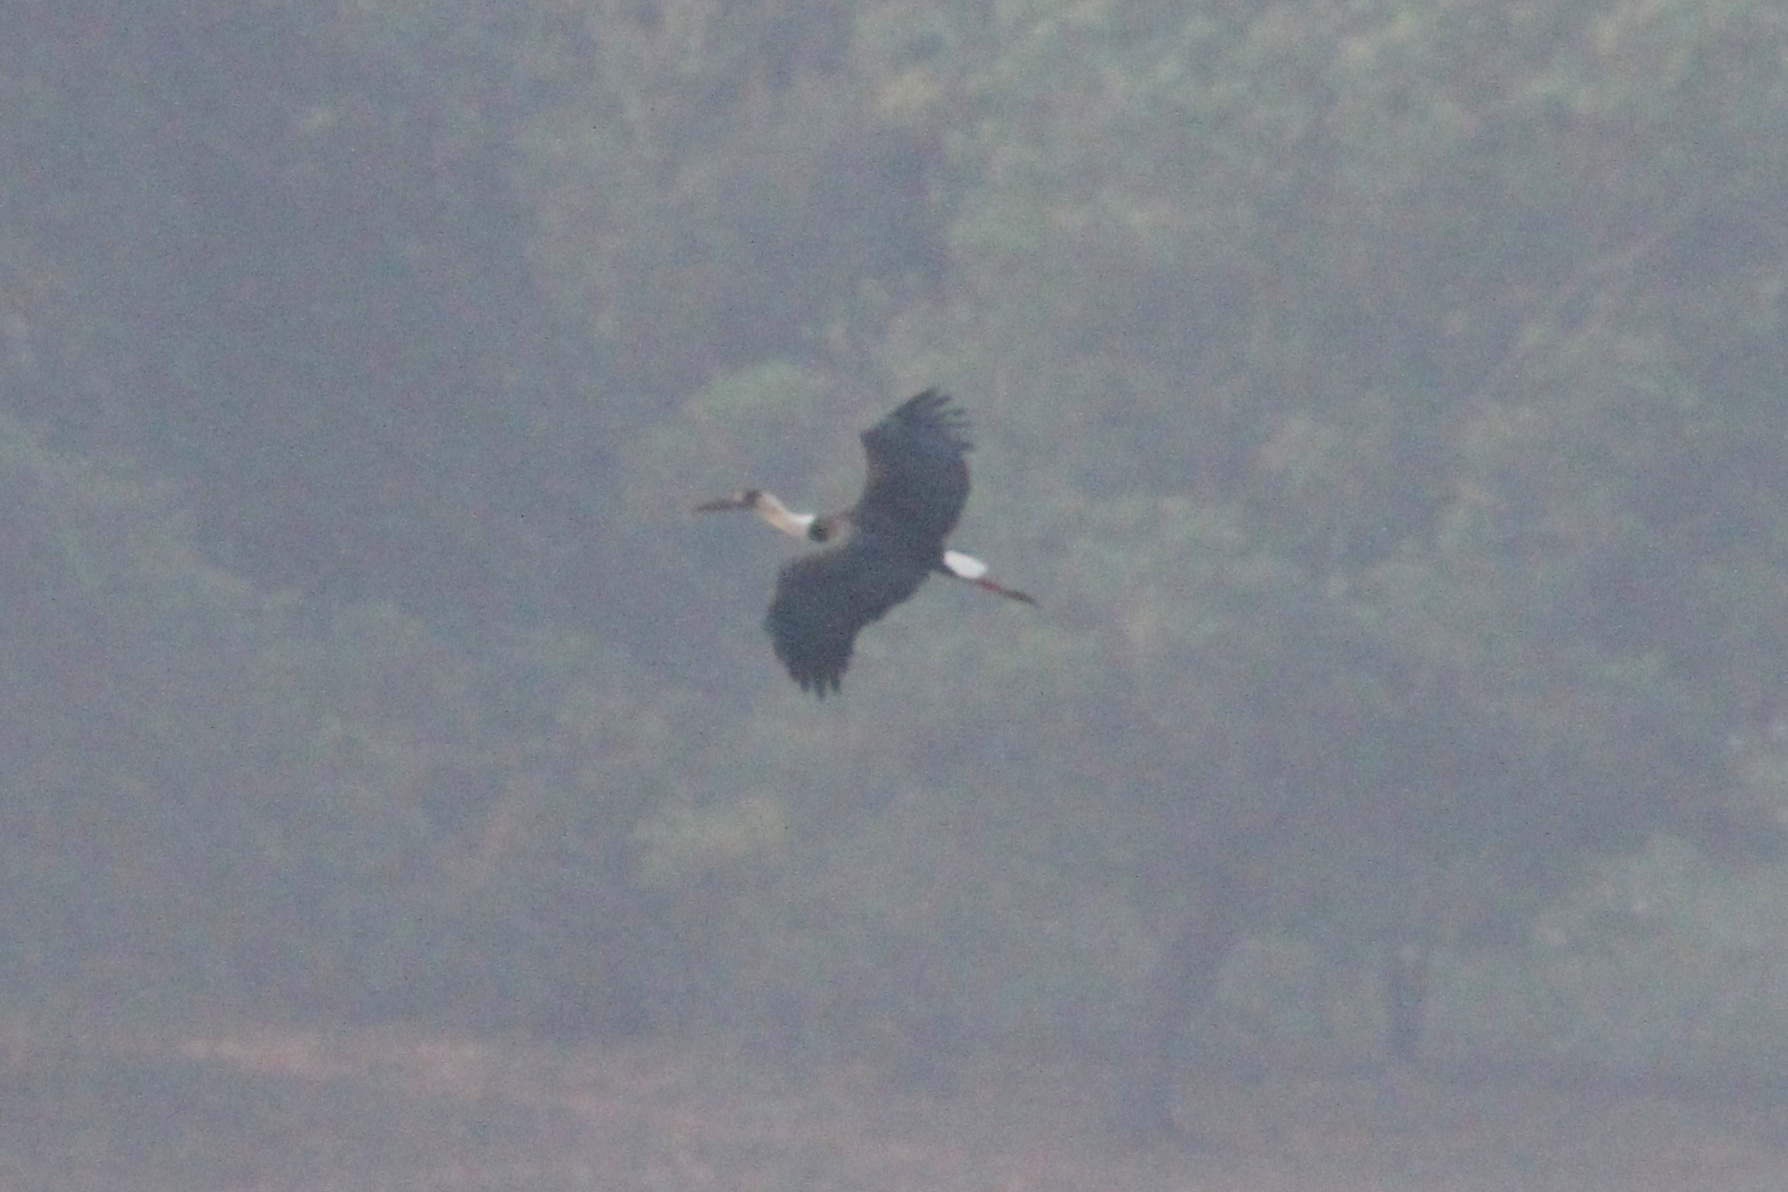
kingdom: Animalia
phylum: Chordata
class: Aves
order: Ciconiiformes
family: Ciconiidae
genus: Ciconia
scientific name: Ciconia episcopus
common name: Woolly-necked stork
